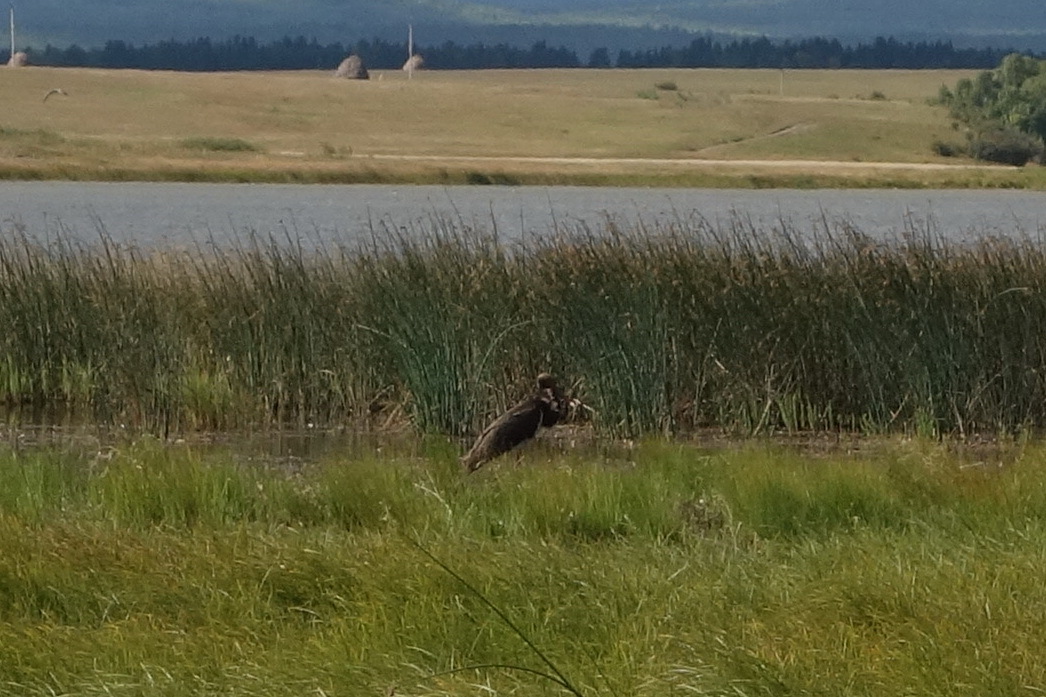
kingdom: Animalia
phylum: Chordata
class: Aves
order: Ciconiiformes
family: Ciconiidae
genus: Ciconia
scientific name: Ciconia nigra
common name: Black stork
